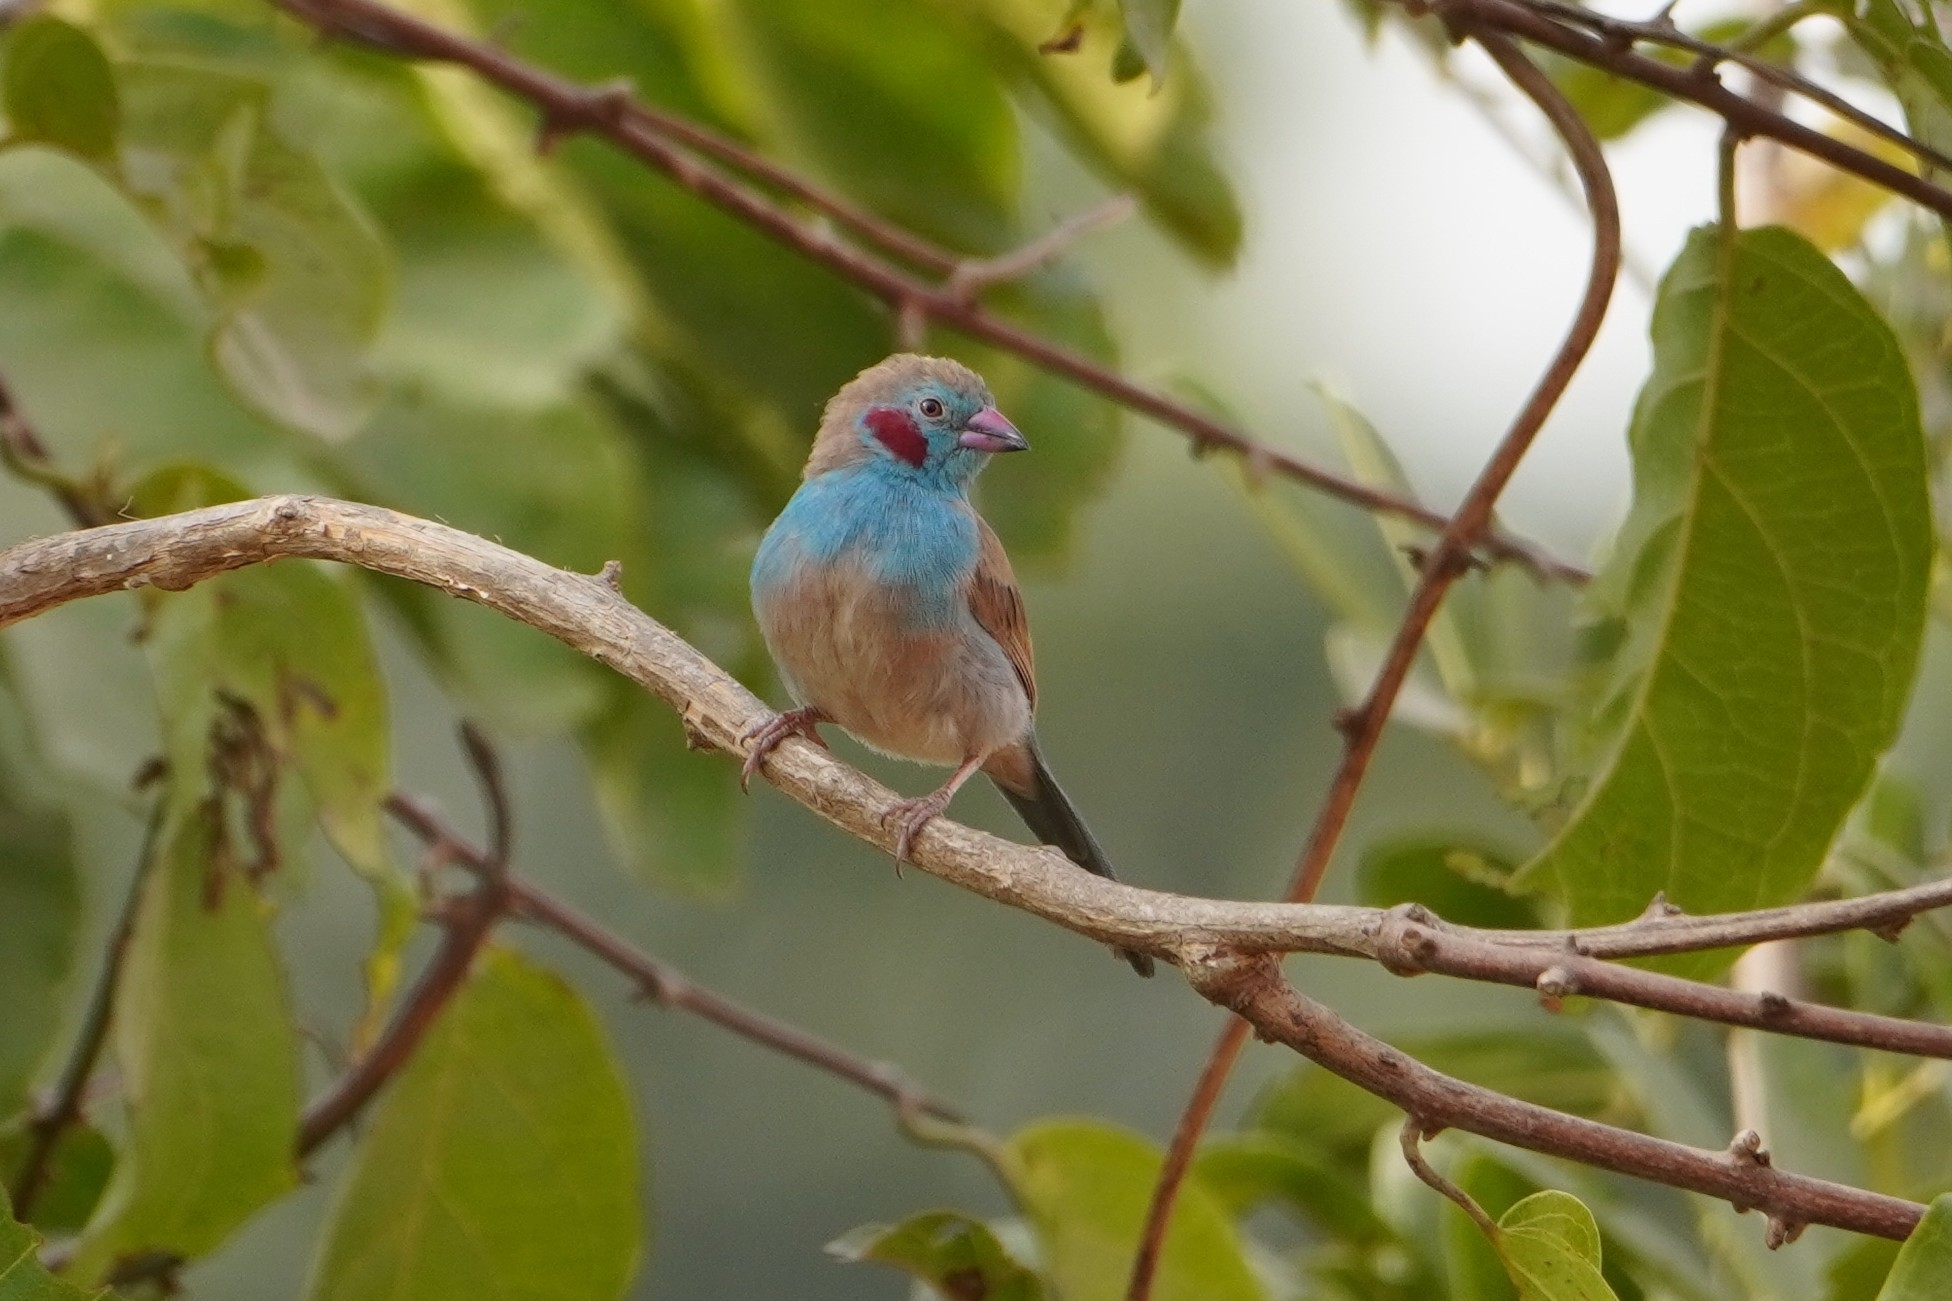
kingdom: Animalia
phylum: Chordata
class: Aves
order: Passeriformes
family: Estrildidae
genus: Uraeginthus
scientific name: Uraeginthus bengalus
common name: Red-cheeked cordon-bleu
